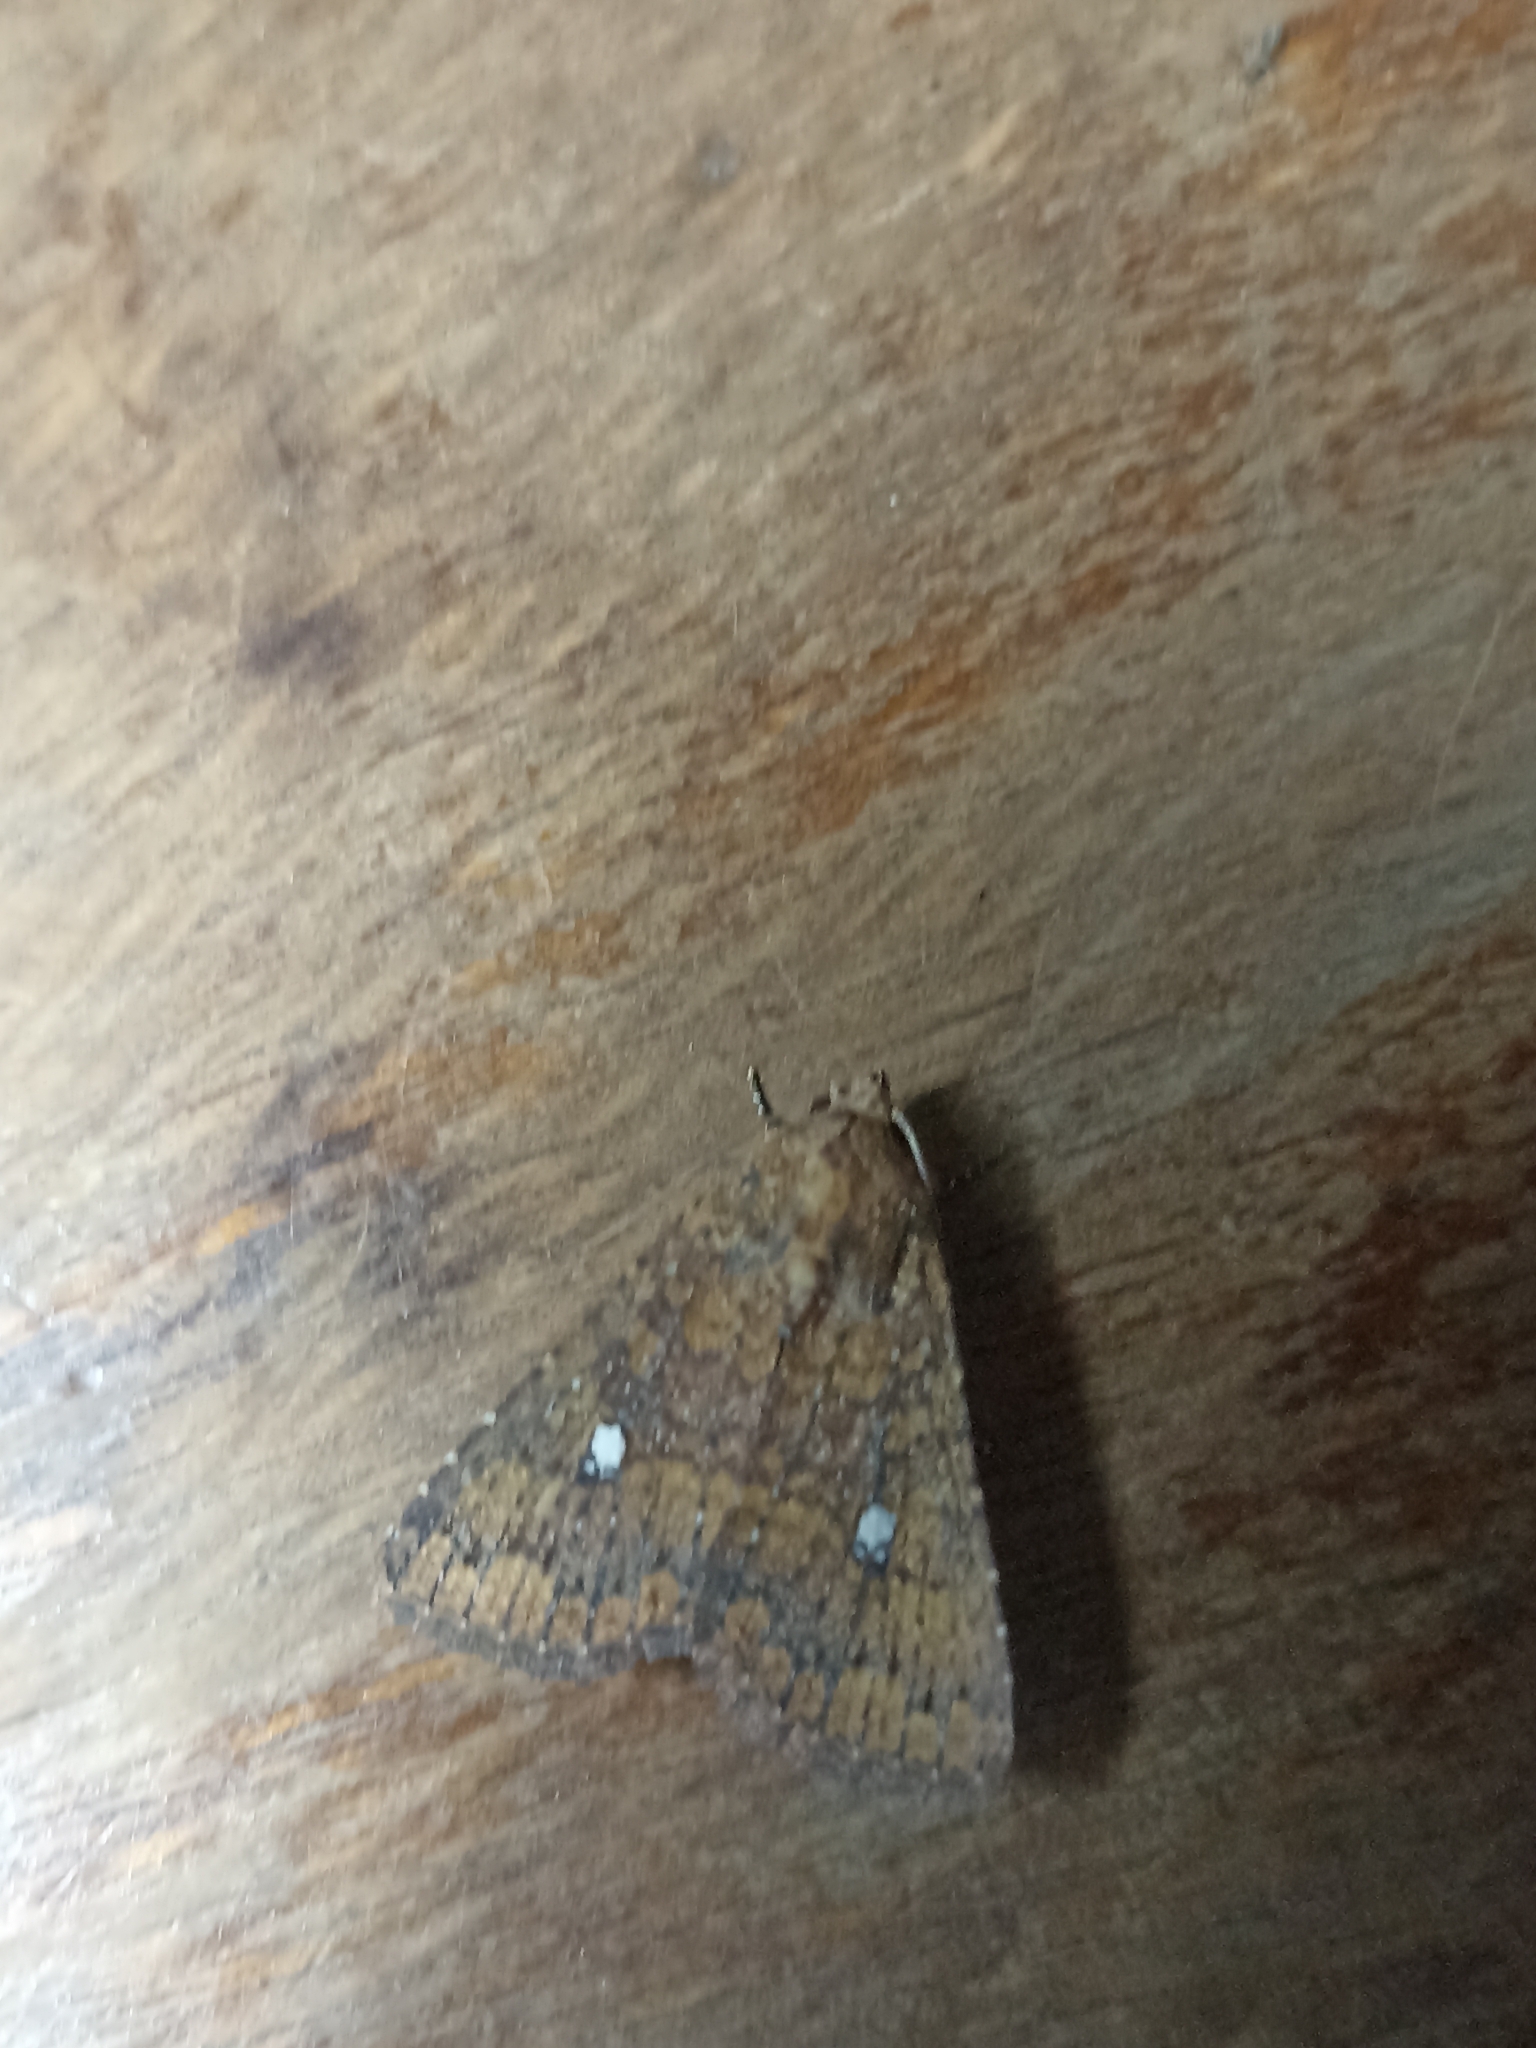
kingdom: Animalia
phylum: Arthropoda
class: Insecta
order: Lepidoptera
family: Noctuidae
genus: Condica
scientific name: Condica mobilis
